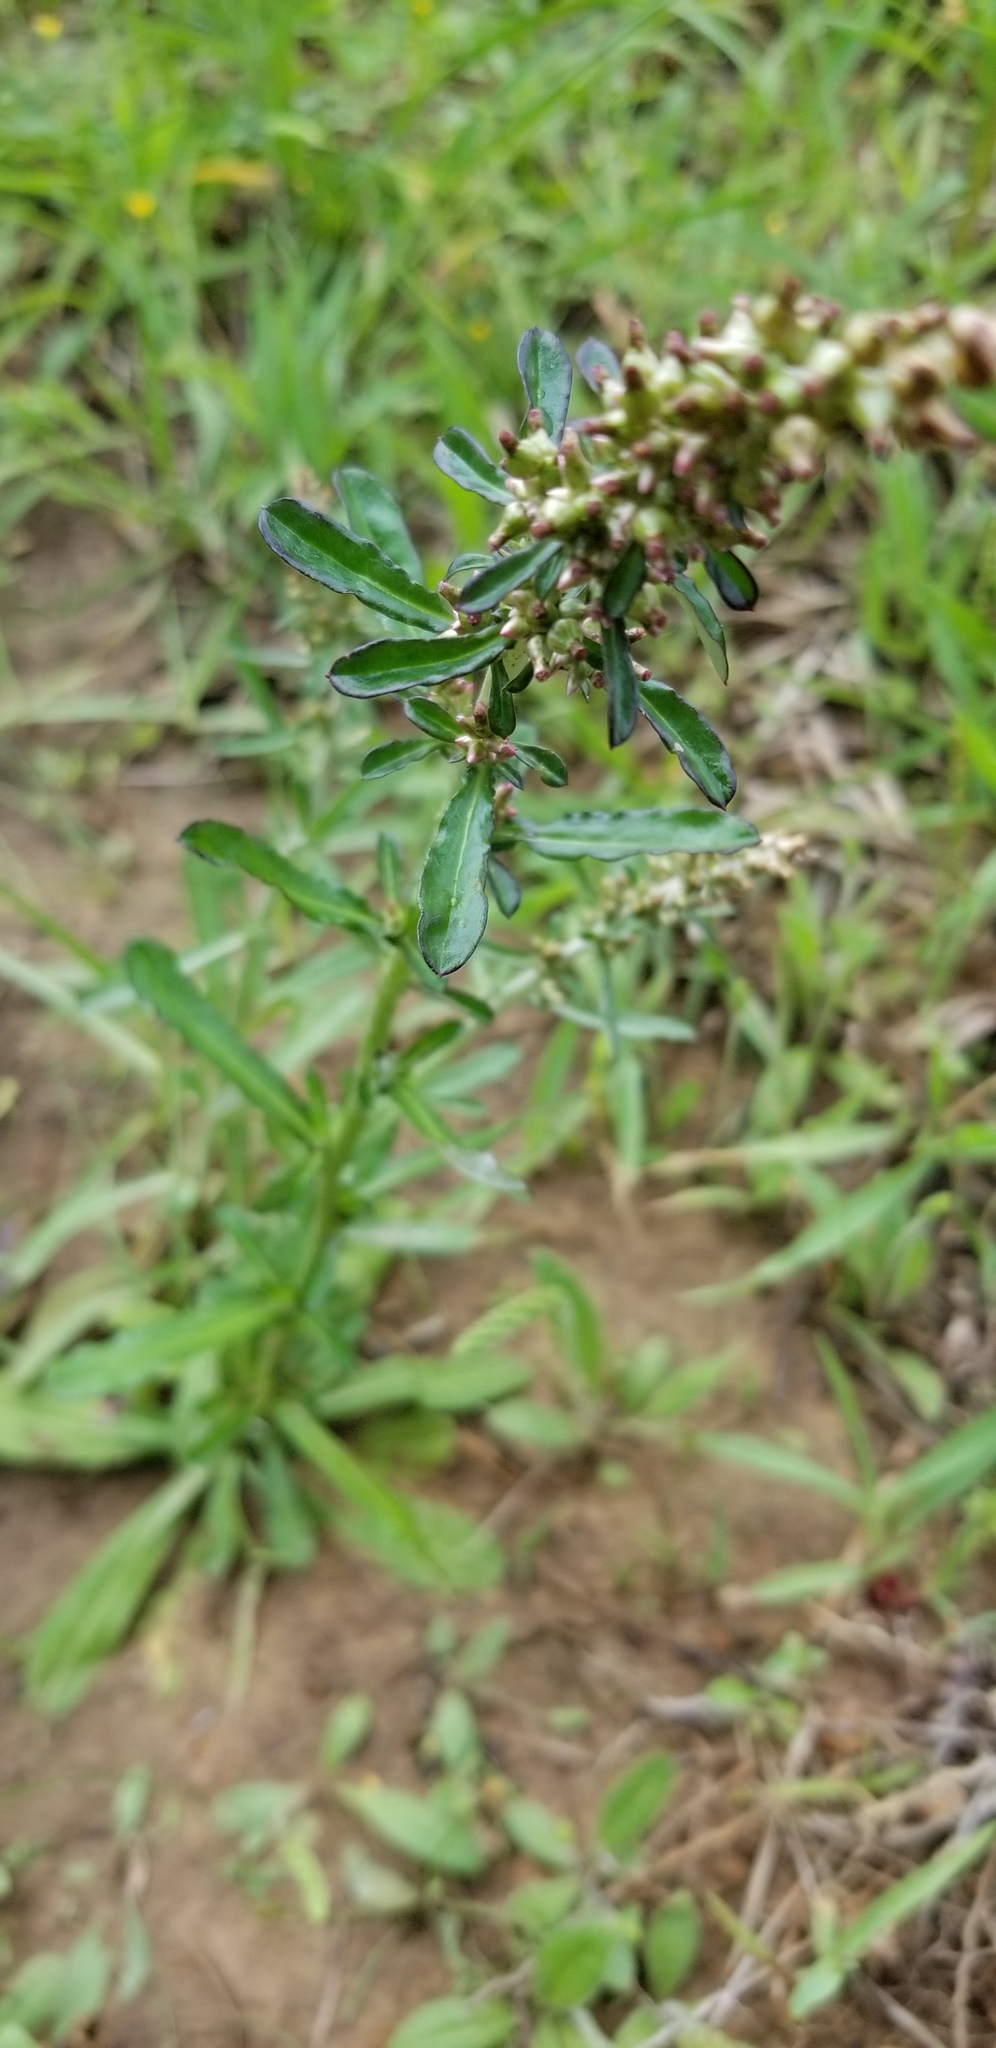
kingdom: Plantae
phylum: Tracheophyta
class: Magnoliopsida
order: Asterales
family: Asteraceae
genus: Gamochaeta
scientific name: Gamochaeta americana
